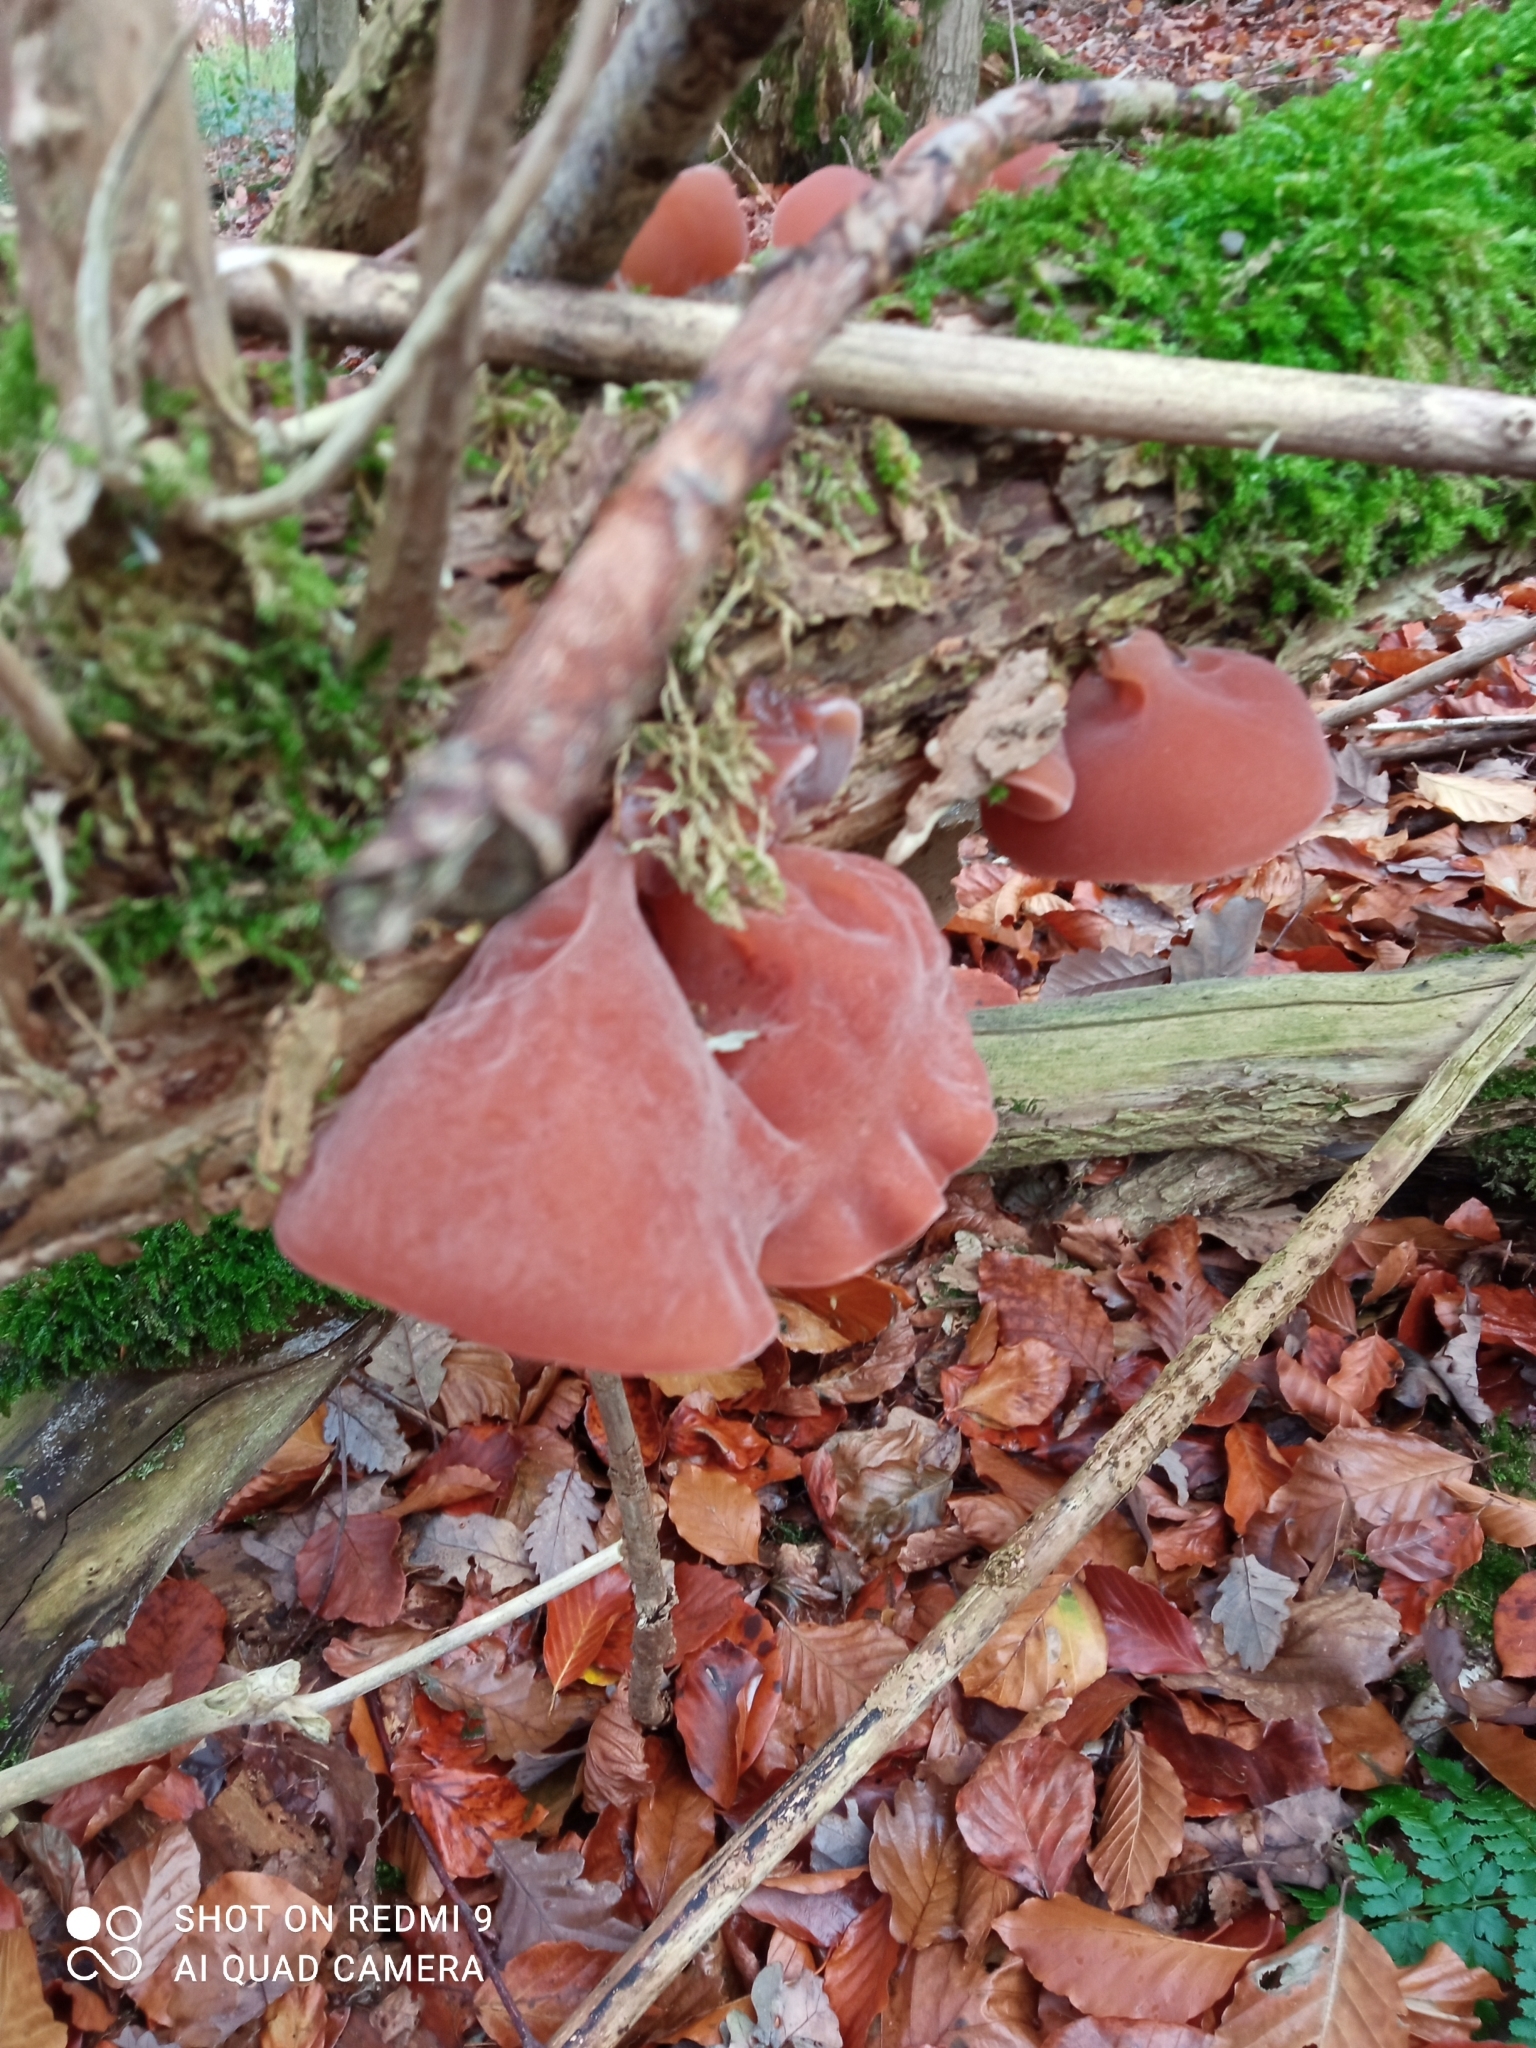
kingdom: Fungi
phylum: Basidiomycota
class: Agaricomycetes
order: Auriculariales
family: Auriculariaceae
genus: Auricularia
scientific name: Auricularia auricula-judae
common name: Jelly ear
